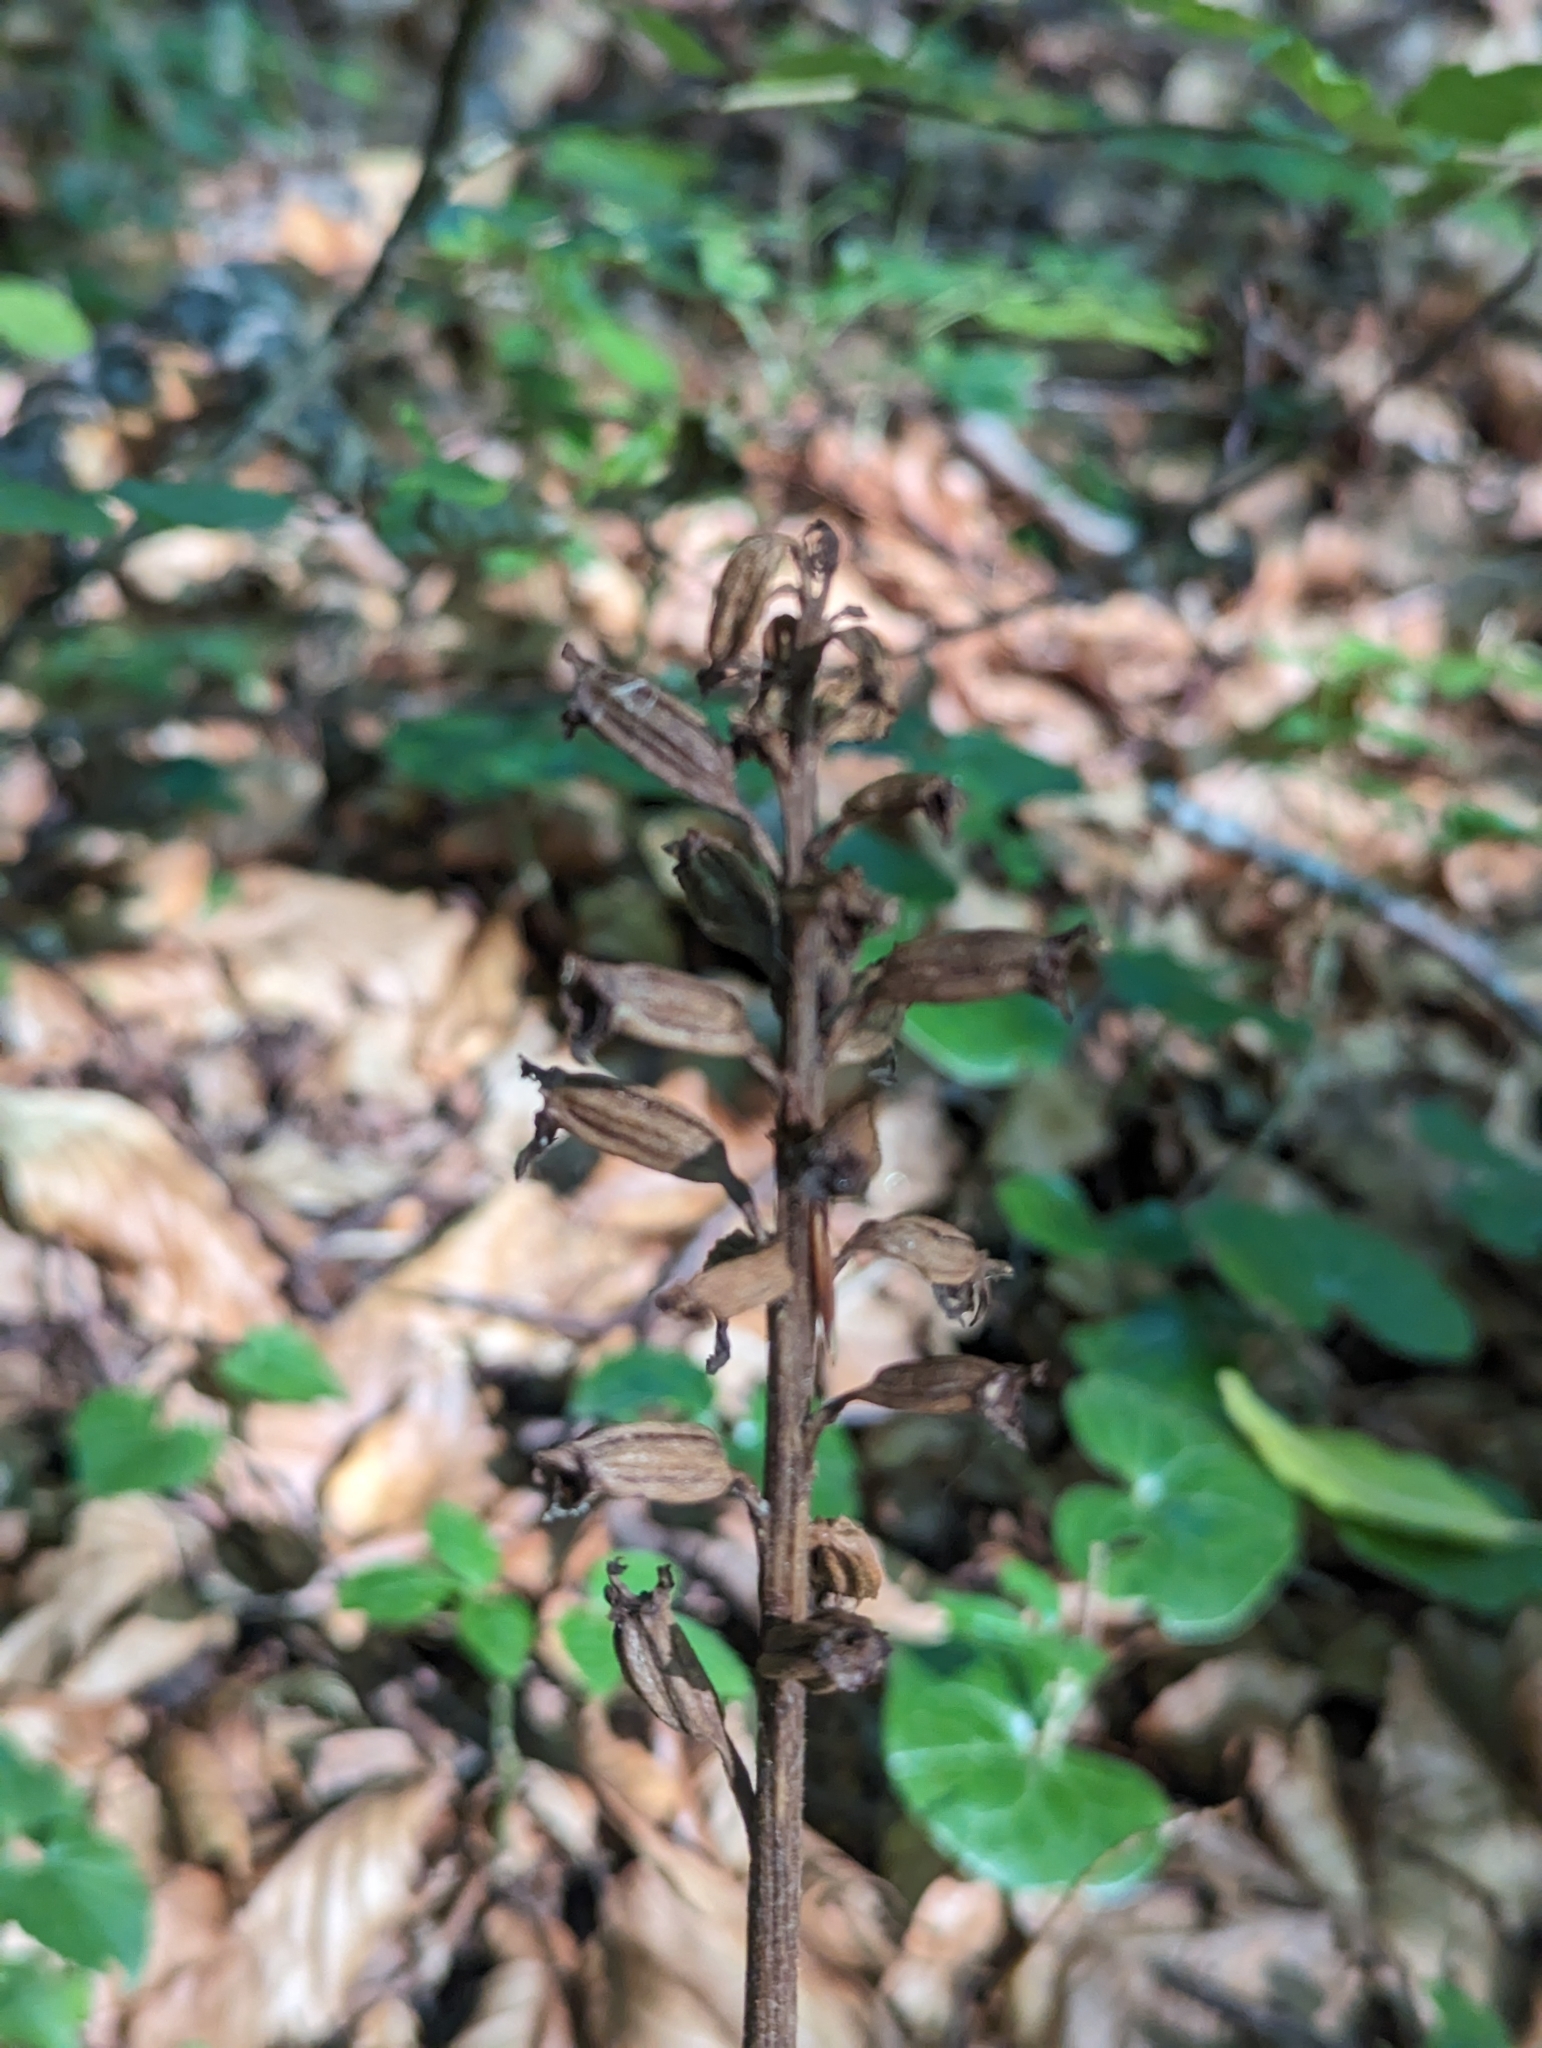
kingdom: Plantae
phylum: Tracheophyta
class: Liliopsida
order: Asparagales
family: Orchidaceae
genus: Neottia
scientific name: Neottia nidus-avis
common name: Bird's-nest orchid
